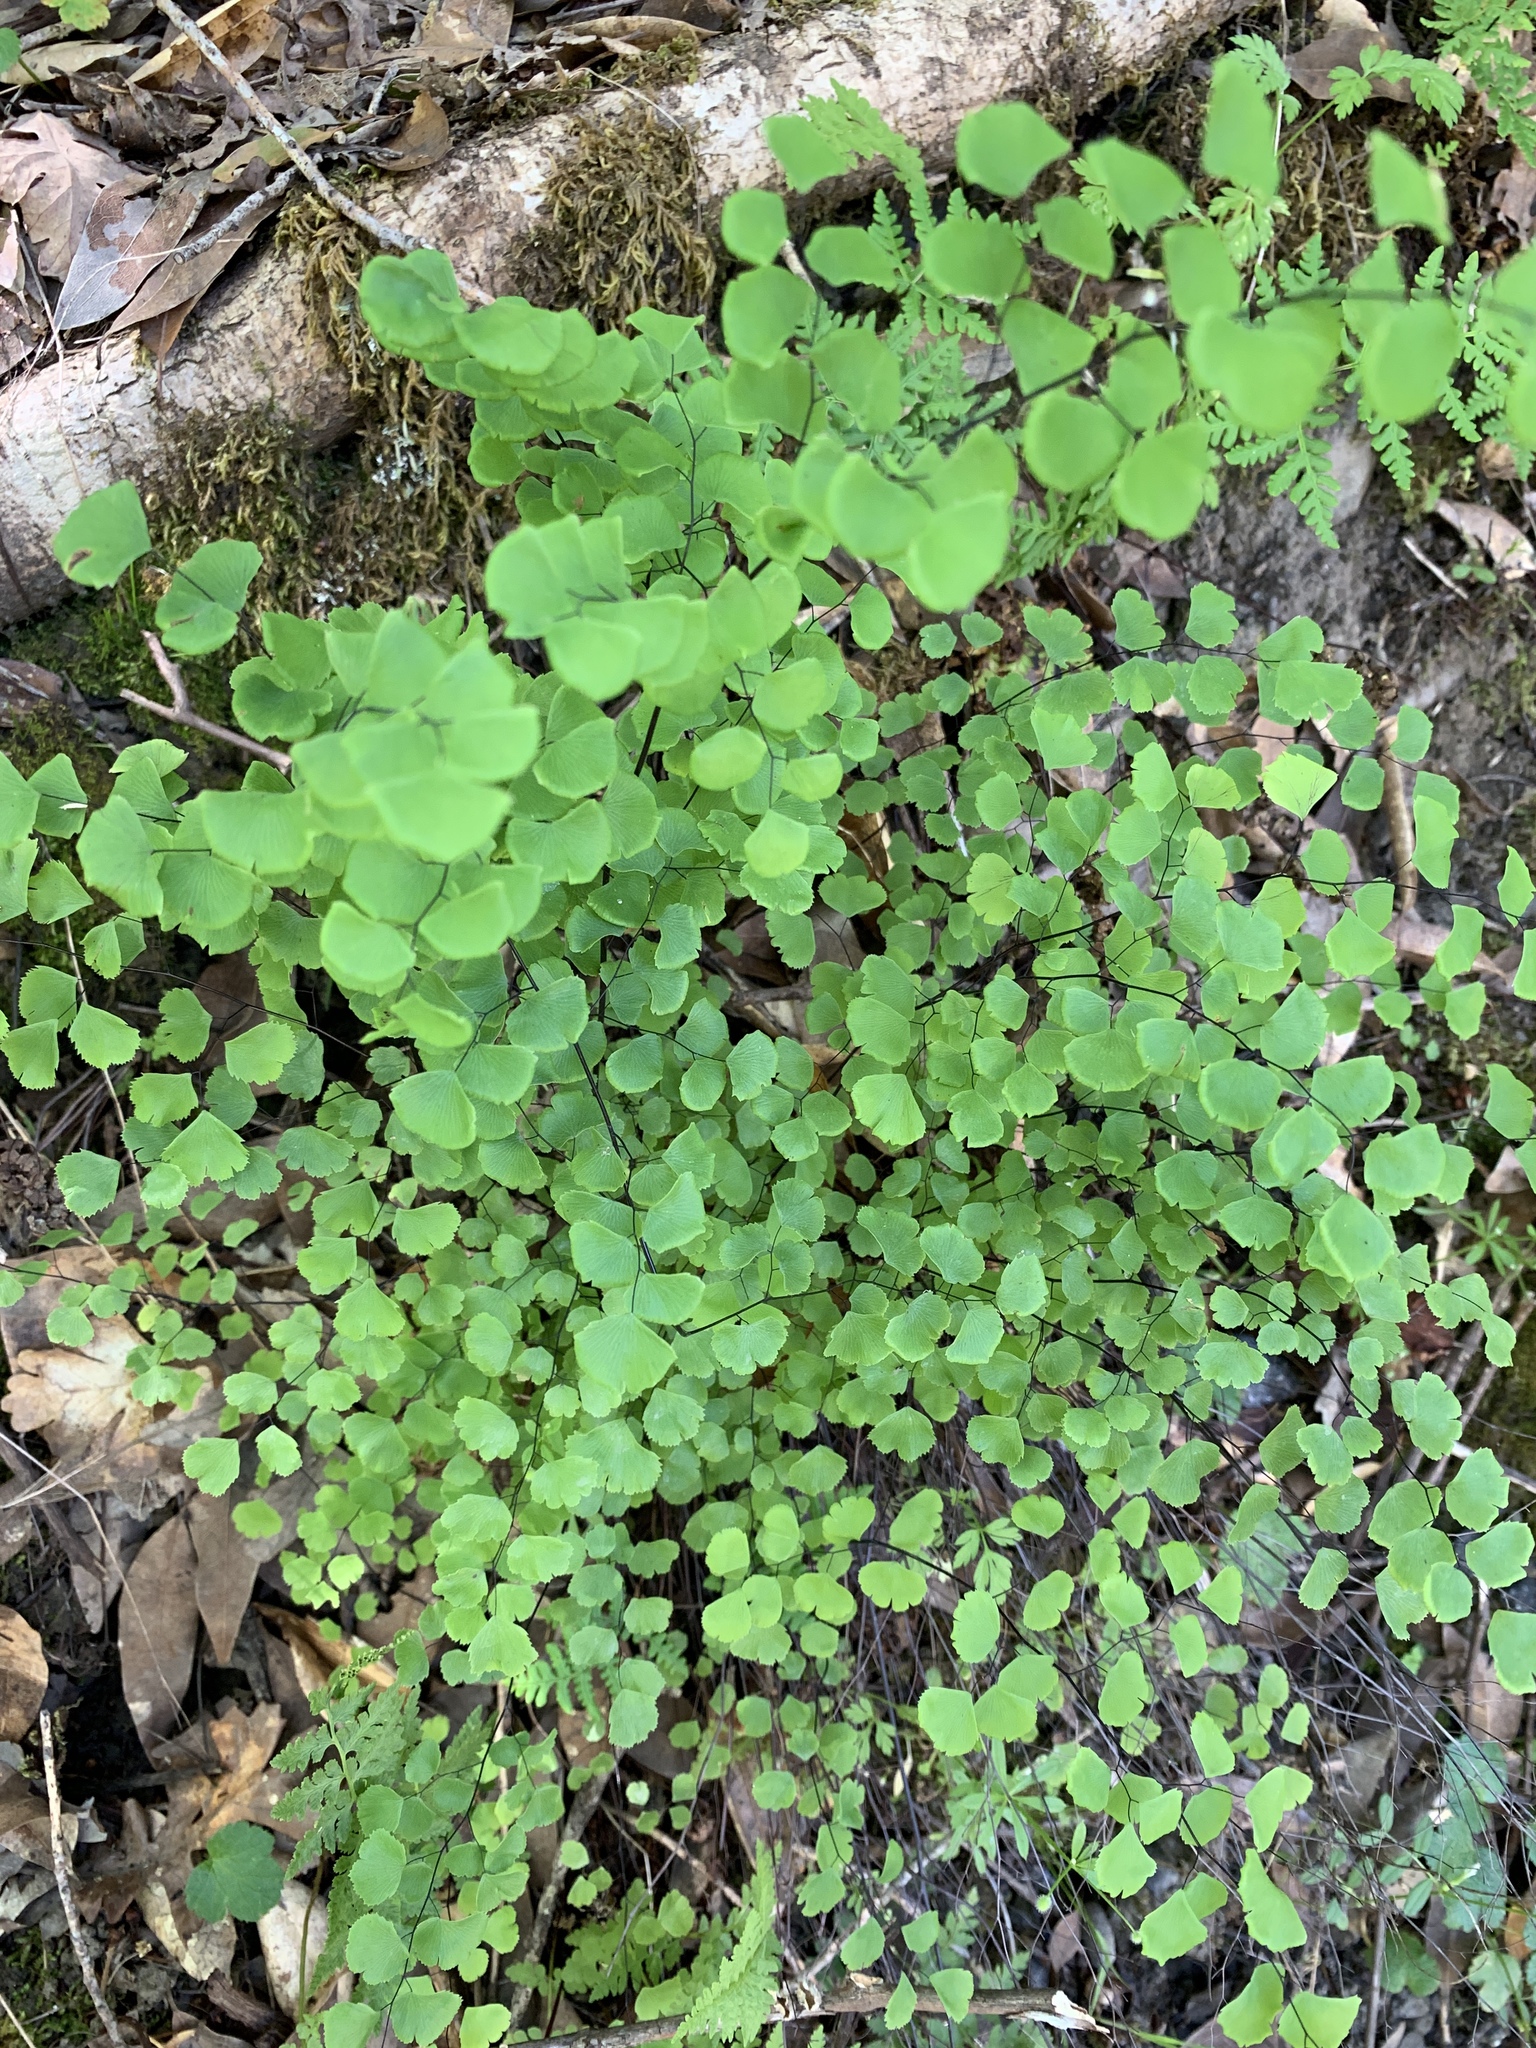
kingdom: Plantae
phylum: Tracheophyta
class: Polypodiopsida
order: Polypodiales
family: Pteridaceae
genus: Adiantum
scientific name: Adiantum jordanii
